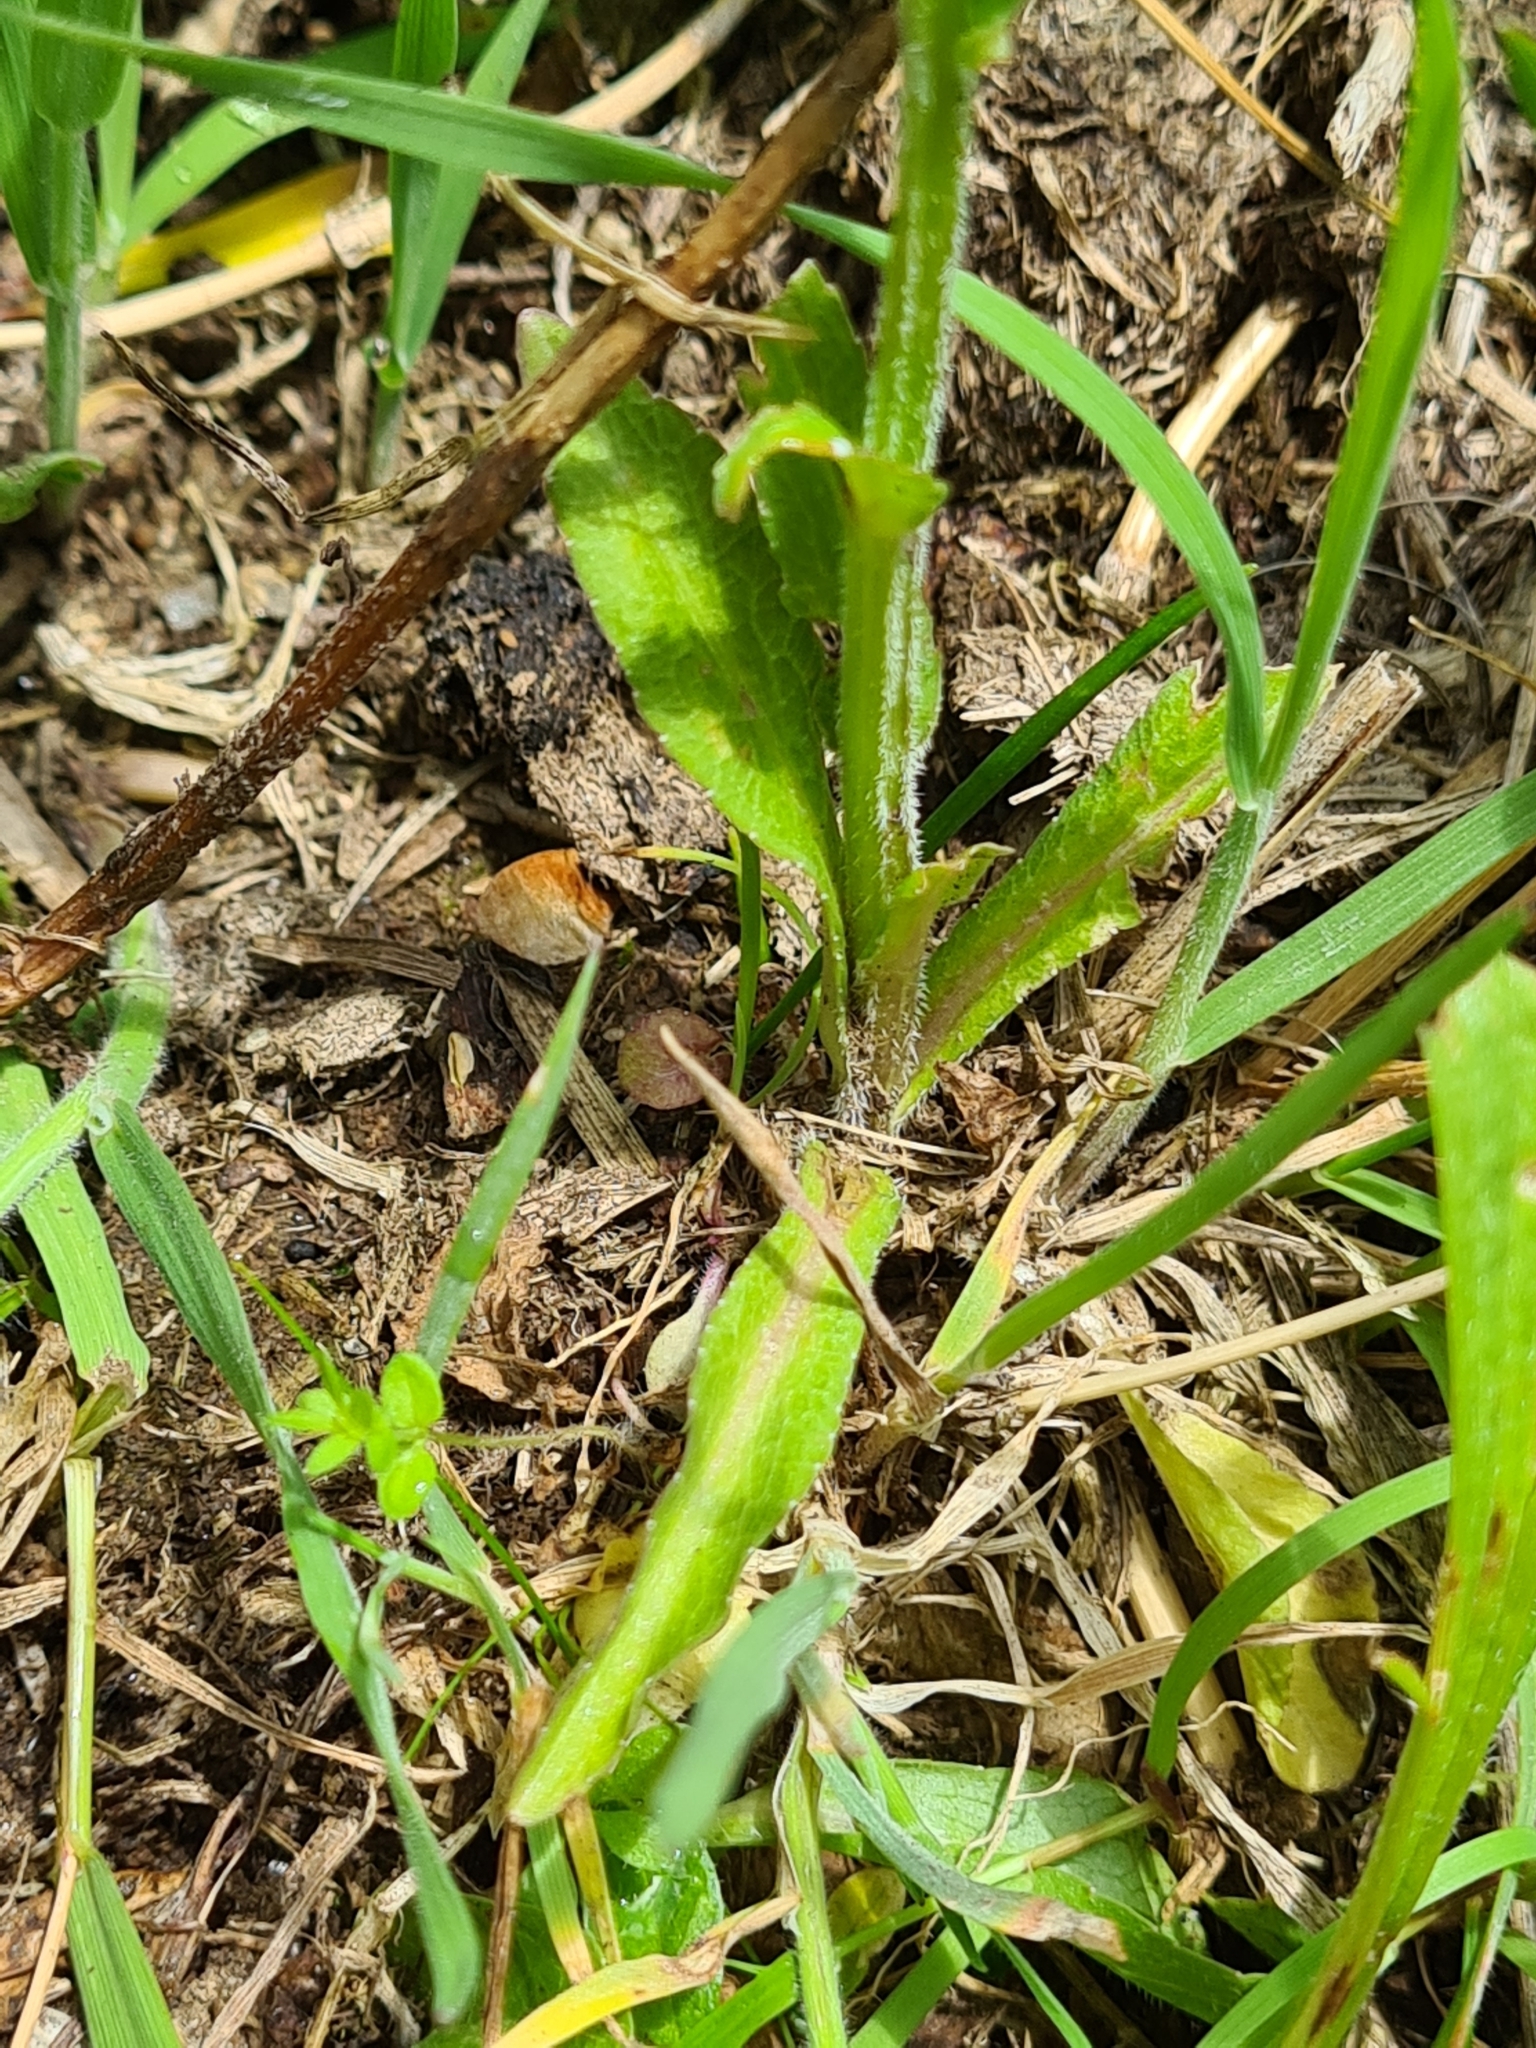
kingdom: Plantae
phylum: Tracheophyta
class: Magnoliopsida
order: Asterales
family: Campanulaceae
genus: Campanula
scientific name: Campanula patula
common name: Spreading bellflower
